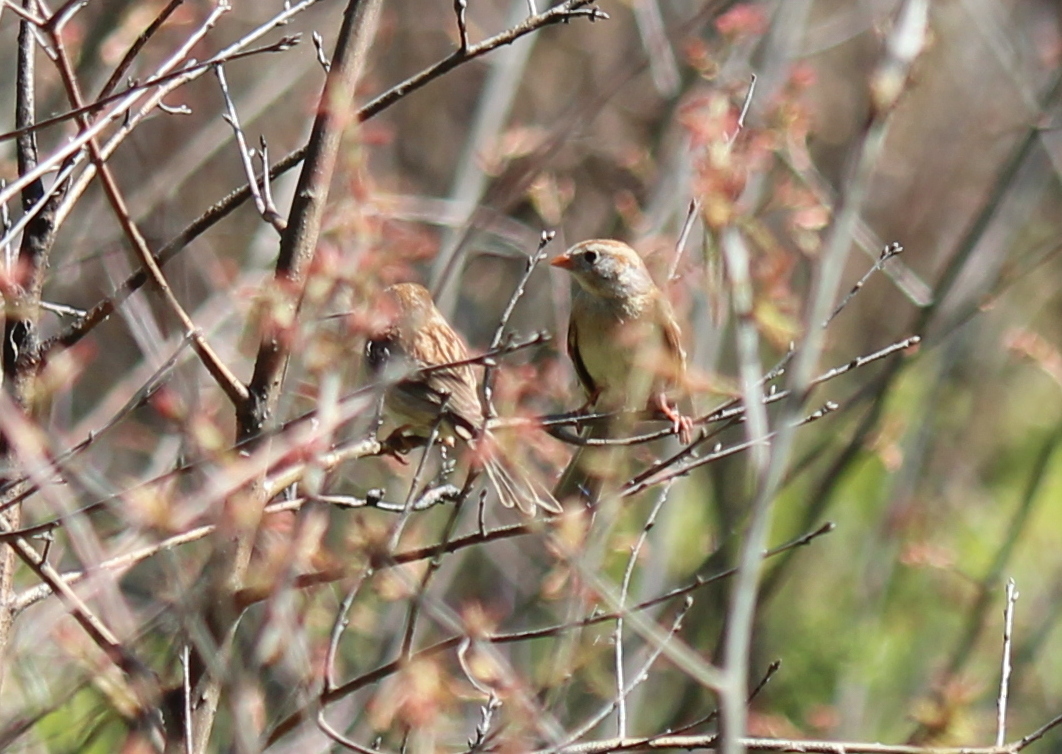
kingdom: Animalia
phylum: Chordata
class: Aves
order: Passeriformes
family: Passerellidae
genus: Spizella
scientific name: Spizella pusilla
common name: Field sparrow
